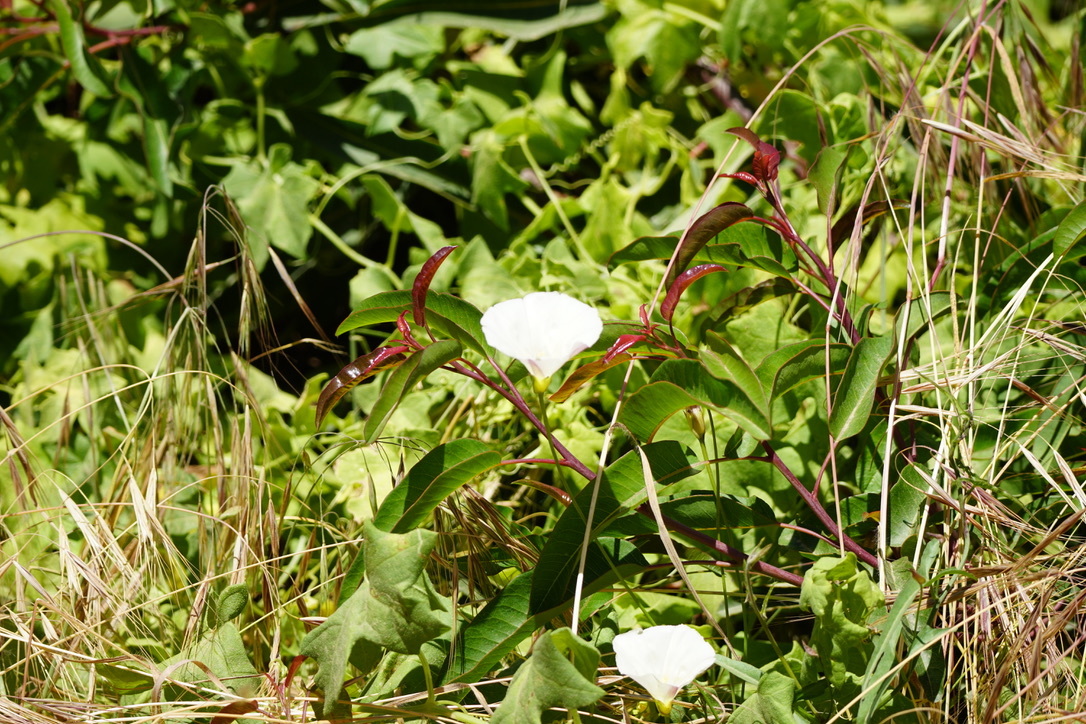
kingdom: Plantae
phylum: Tracheophyta
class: Magnoliopsida
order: Solanales
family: Convolvulaceae
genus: Calystegia
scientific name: Calystegia macrostegia
